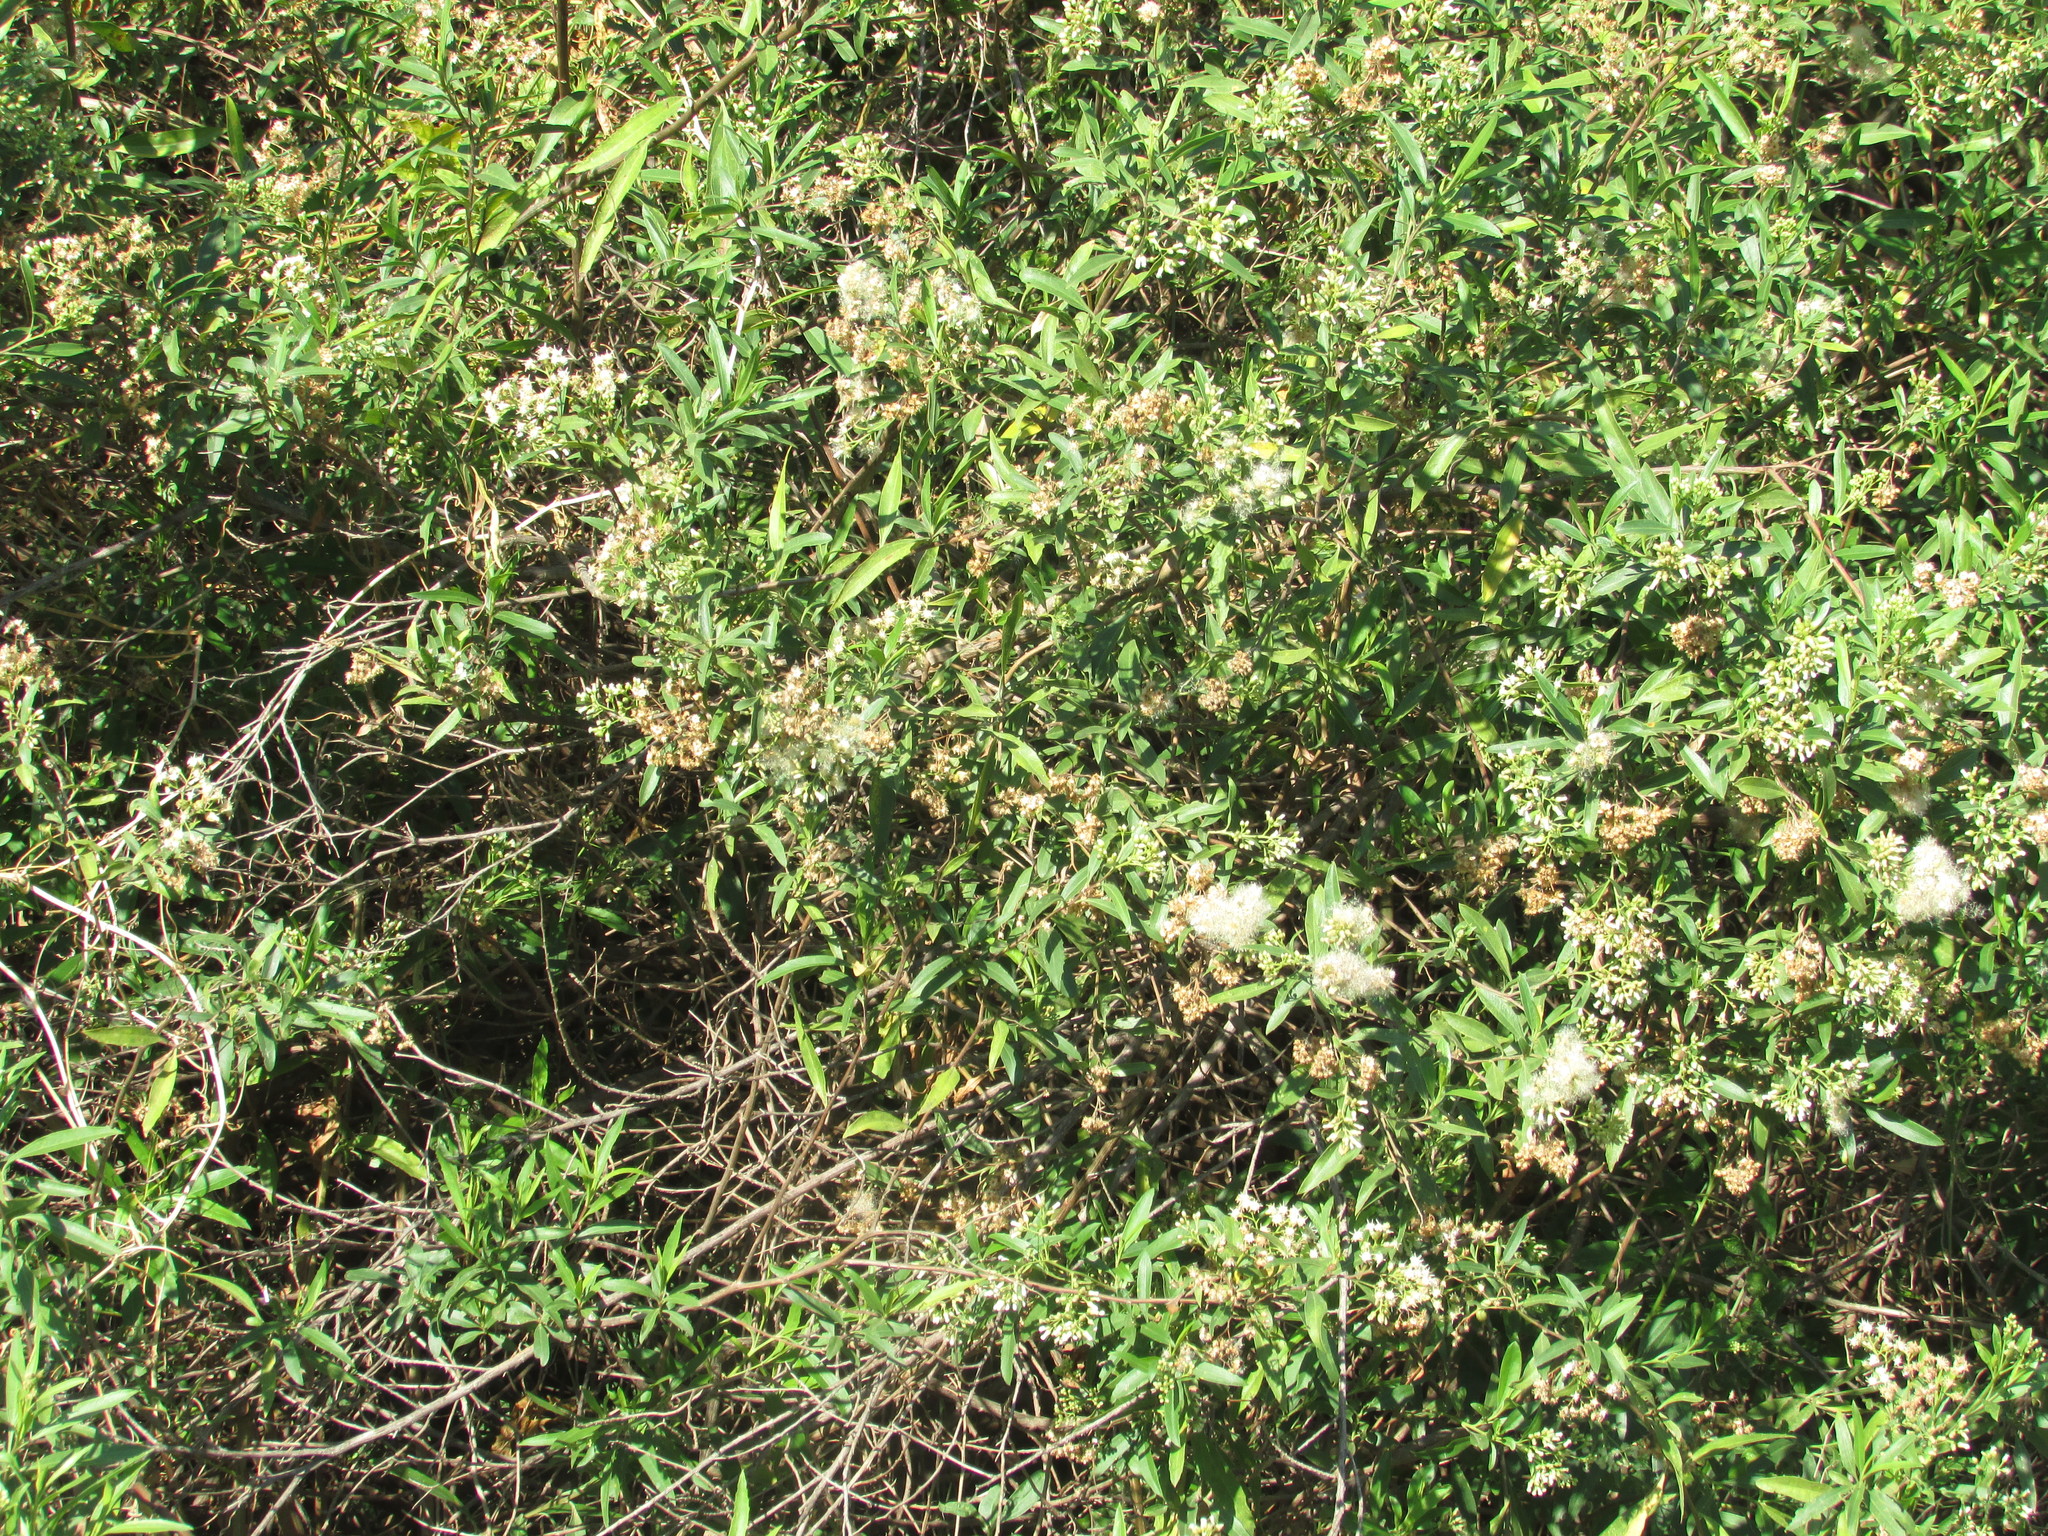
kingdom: Plantae
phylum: Tracheophyta
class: Magnoliopsida
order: Asterales
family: Asteraceae
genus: Austroeupatorium
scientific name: Austroeupatorium inulifolium
